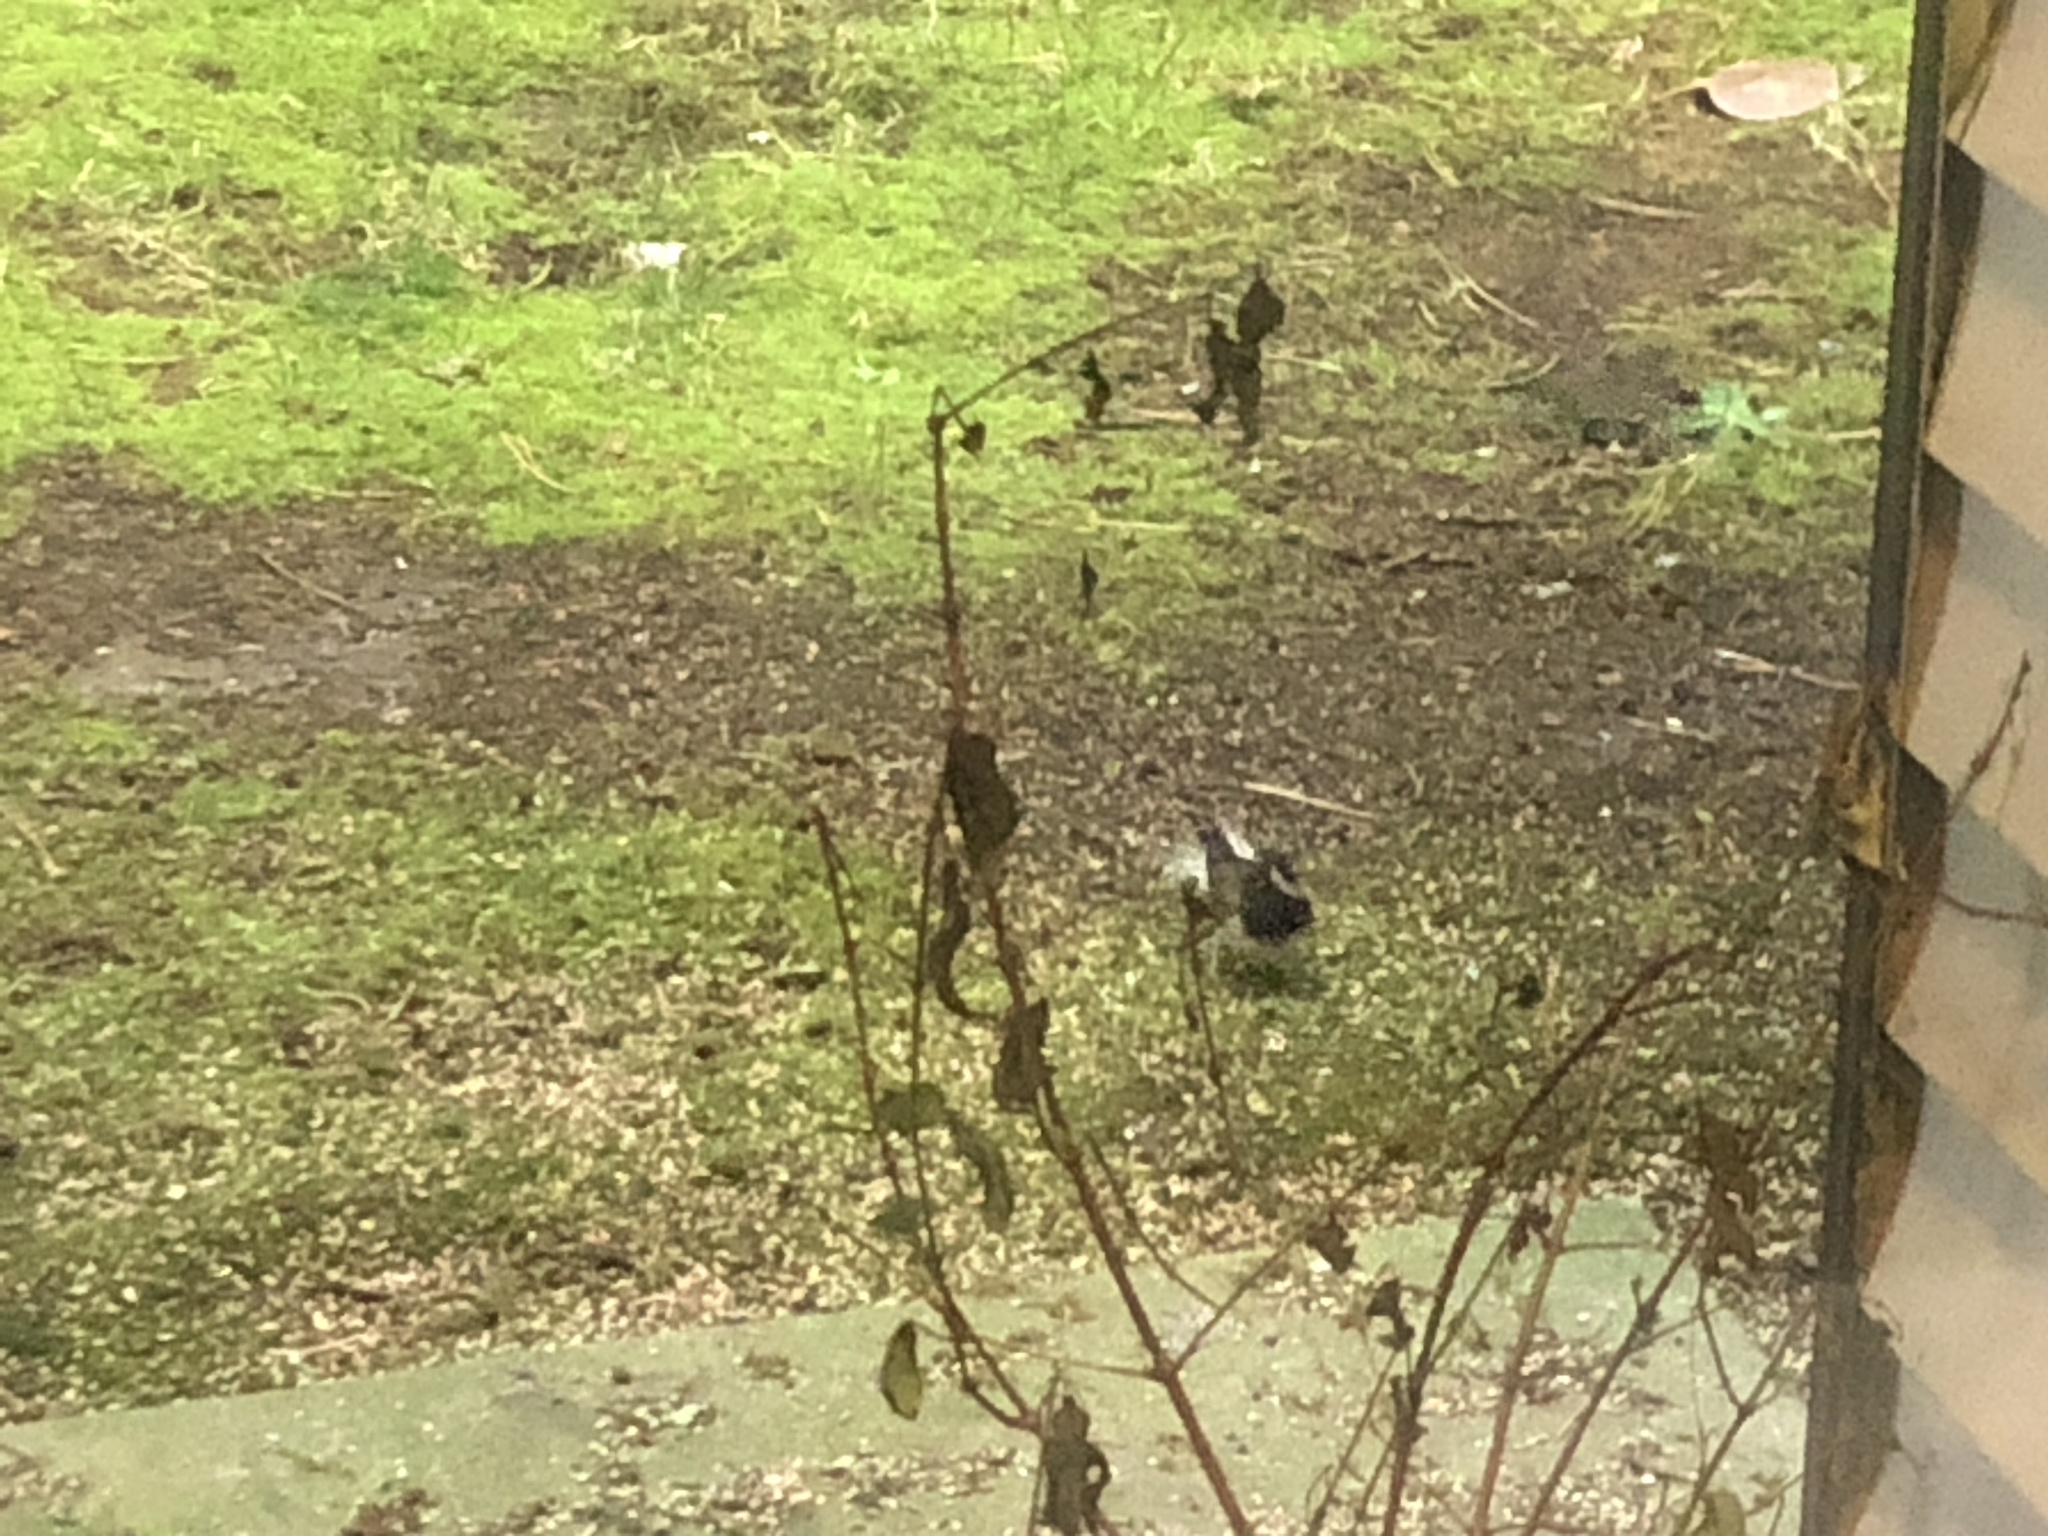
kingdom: Animalia
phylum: Chordata
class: Aves
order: Passeriformes
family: Passerellidae
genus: Junco
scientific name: Junco hyemalis
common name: Dark-eyed junco
